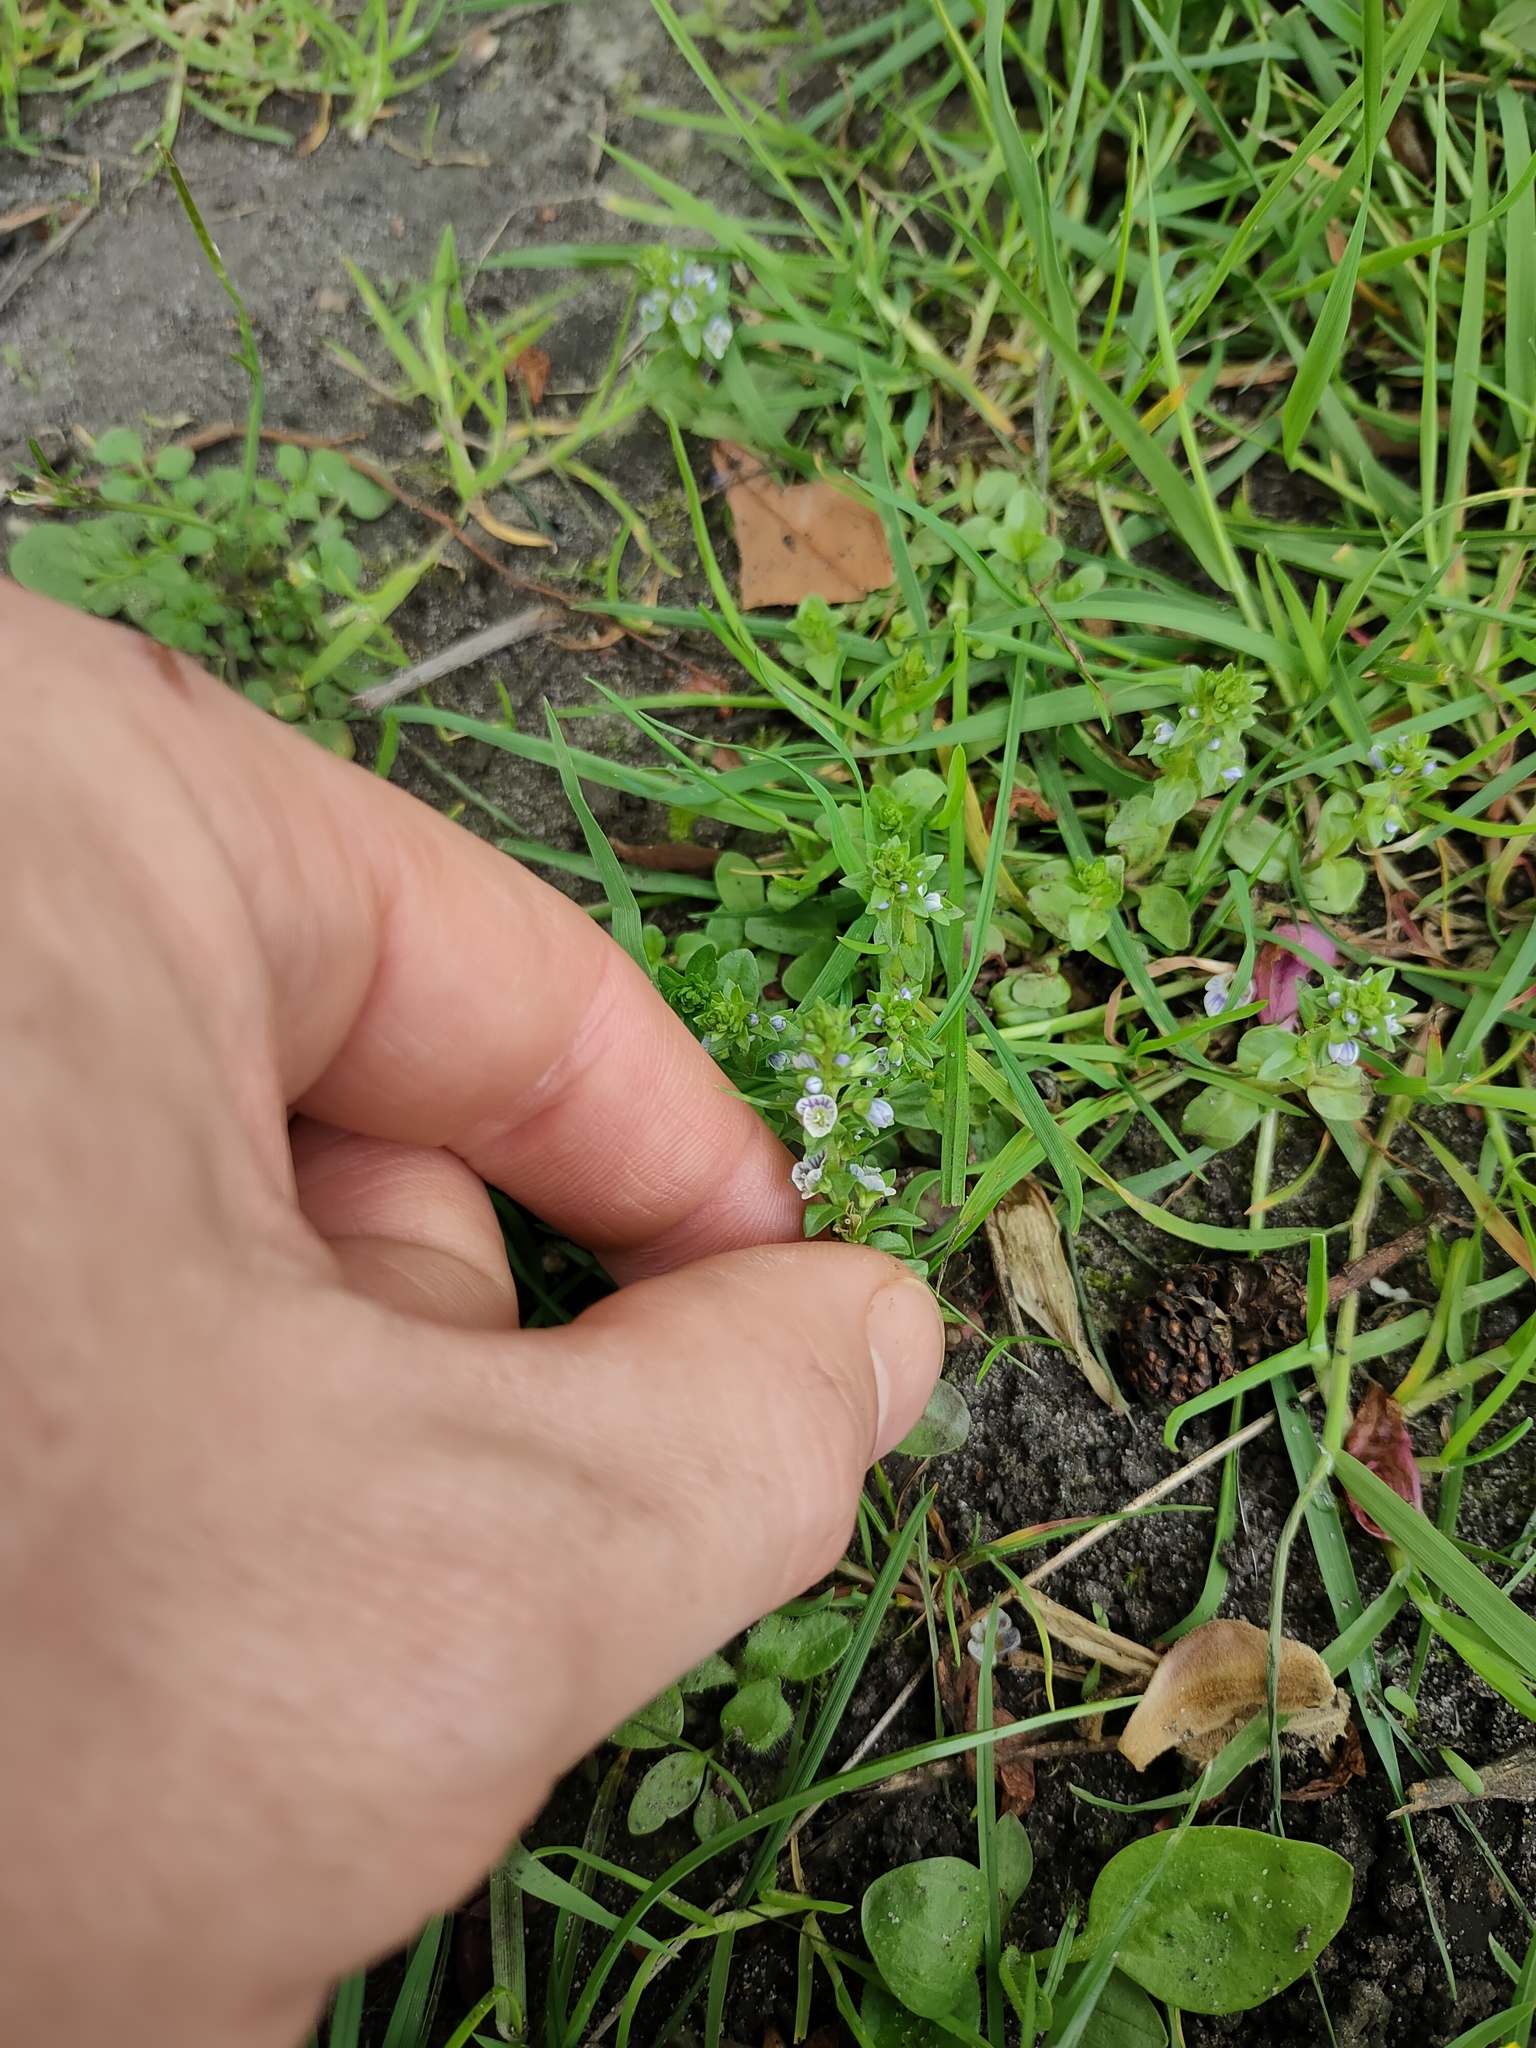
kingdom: Plantae
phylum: Tracheophyta
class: Magnoliopsida
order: Lamiales
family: Plantaginaceae
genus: Veronica
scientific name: Veronica serpyllifolia
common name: Thyme-leaved speedwell
